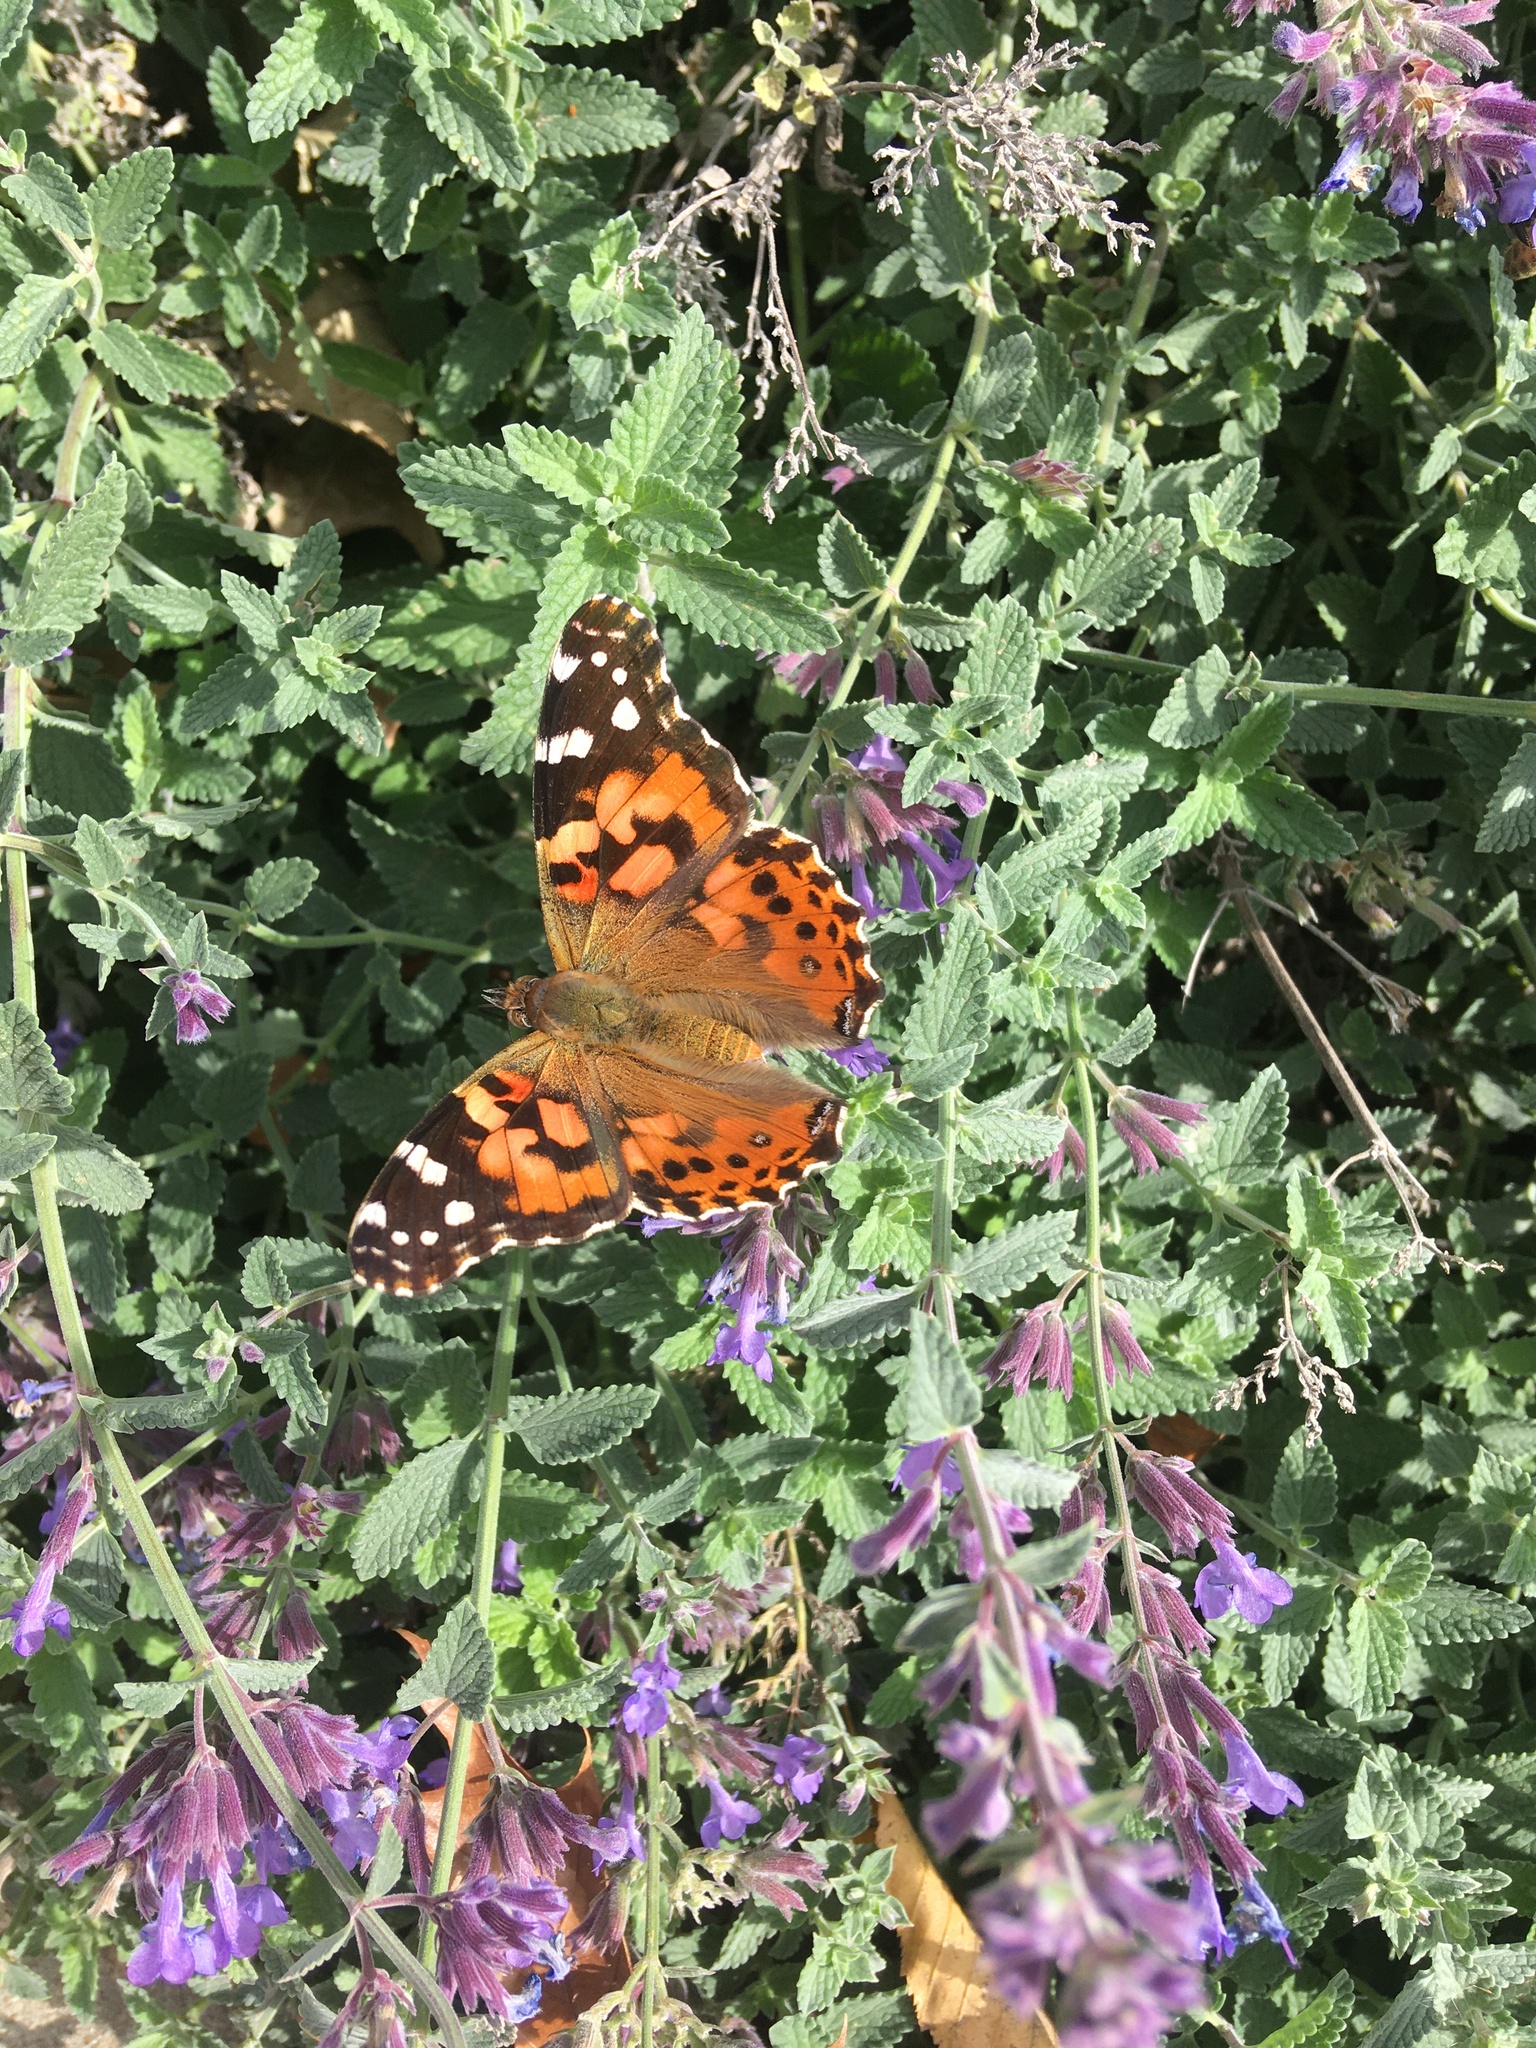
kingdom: Animalia
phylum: Arthropoda
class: Insecta
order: Lepidoptera
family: Nymphalidae
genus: Vanessa
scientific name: Vanessa cardui
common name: Painted lady
